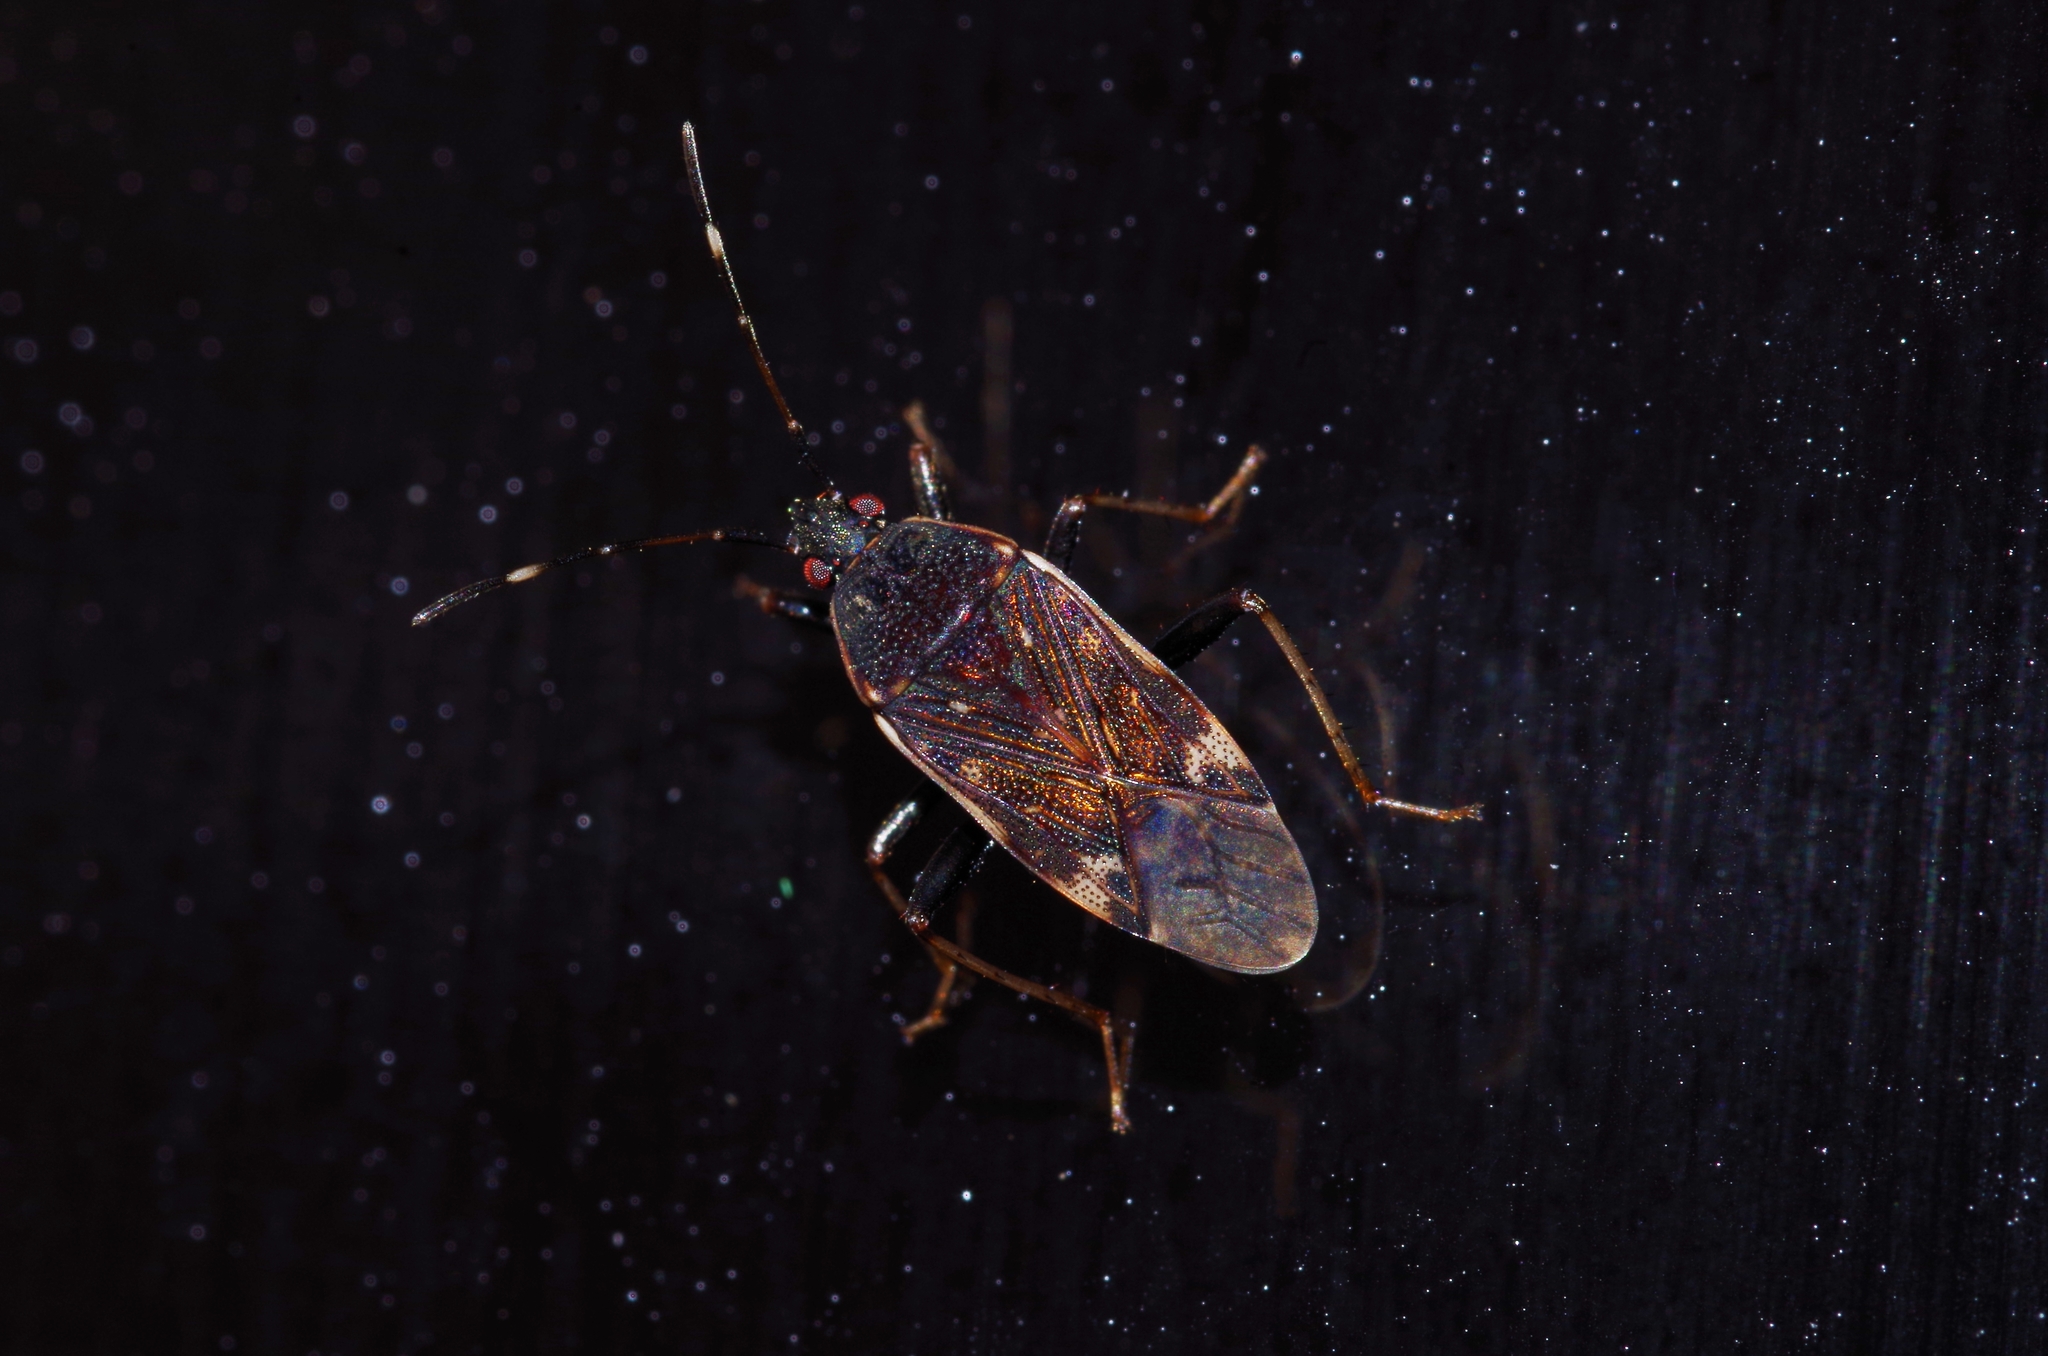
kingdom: Animalia
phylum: Arthropoda
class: Insecta
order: Hemiptera
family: Rhyparochromidae
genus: Neolethaeus
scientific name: Neolethaeus lewisi
